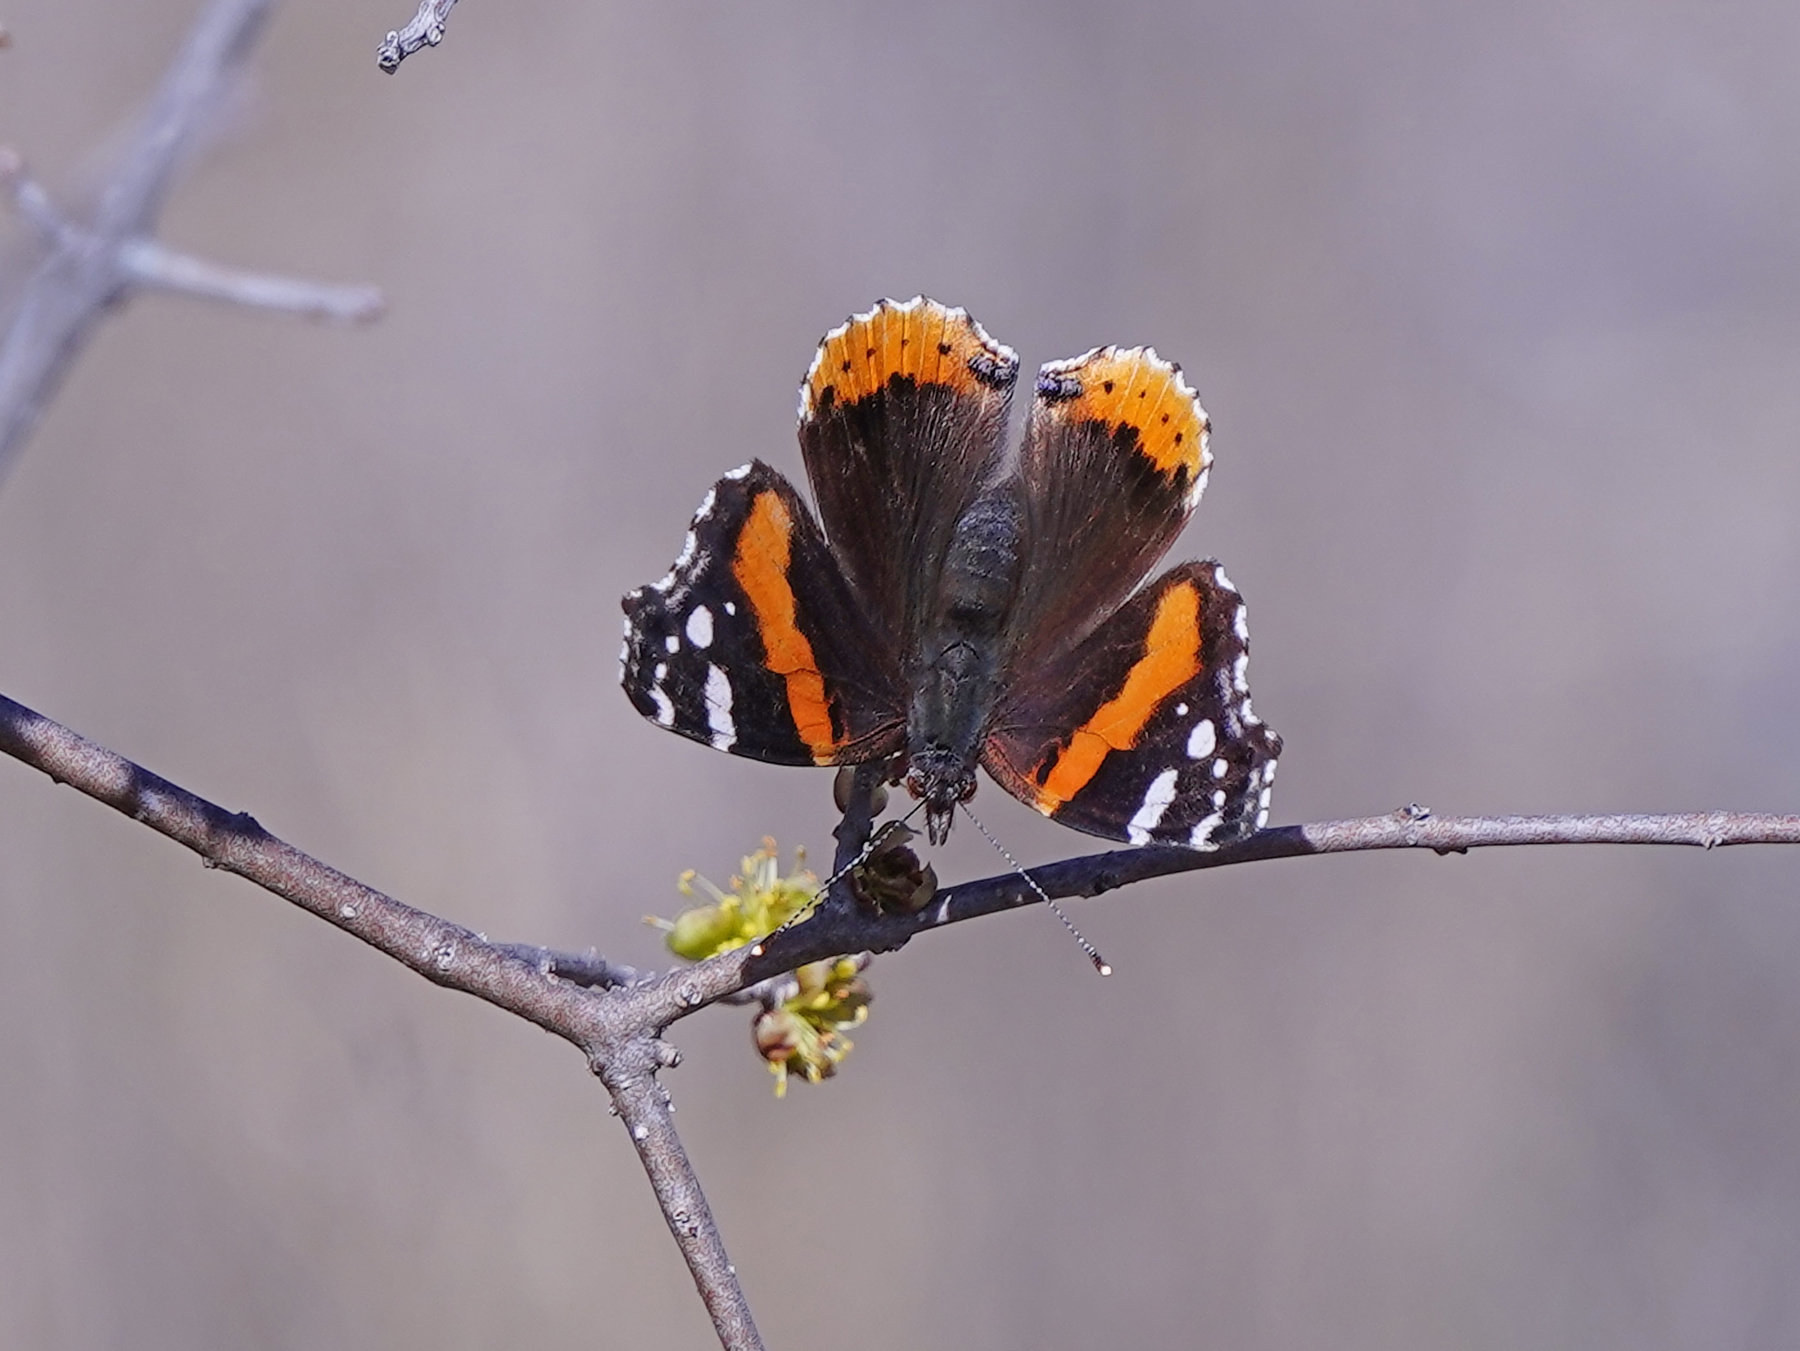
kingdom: Animalia
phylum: Arthropoda
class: Insecta
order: Lepidoptera
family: Nymphalidae
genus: Vanessa
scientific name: Vanessa atalanta
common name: Red admiral
